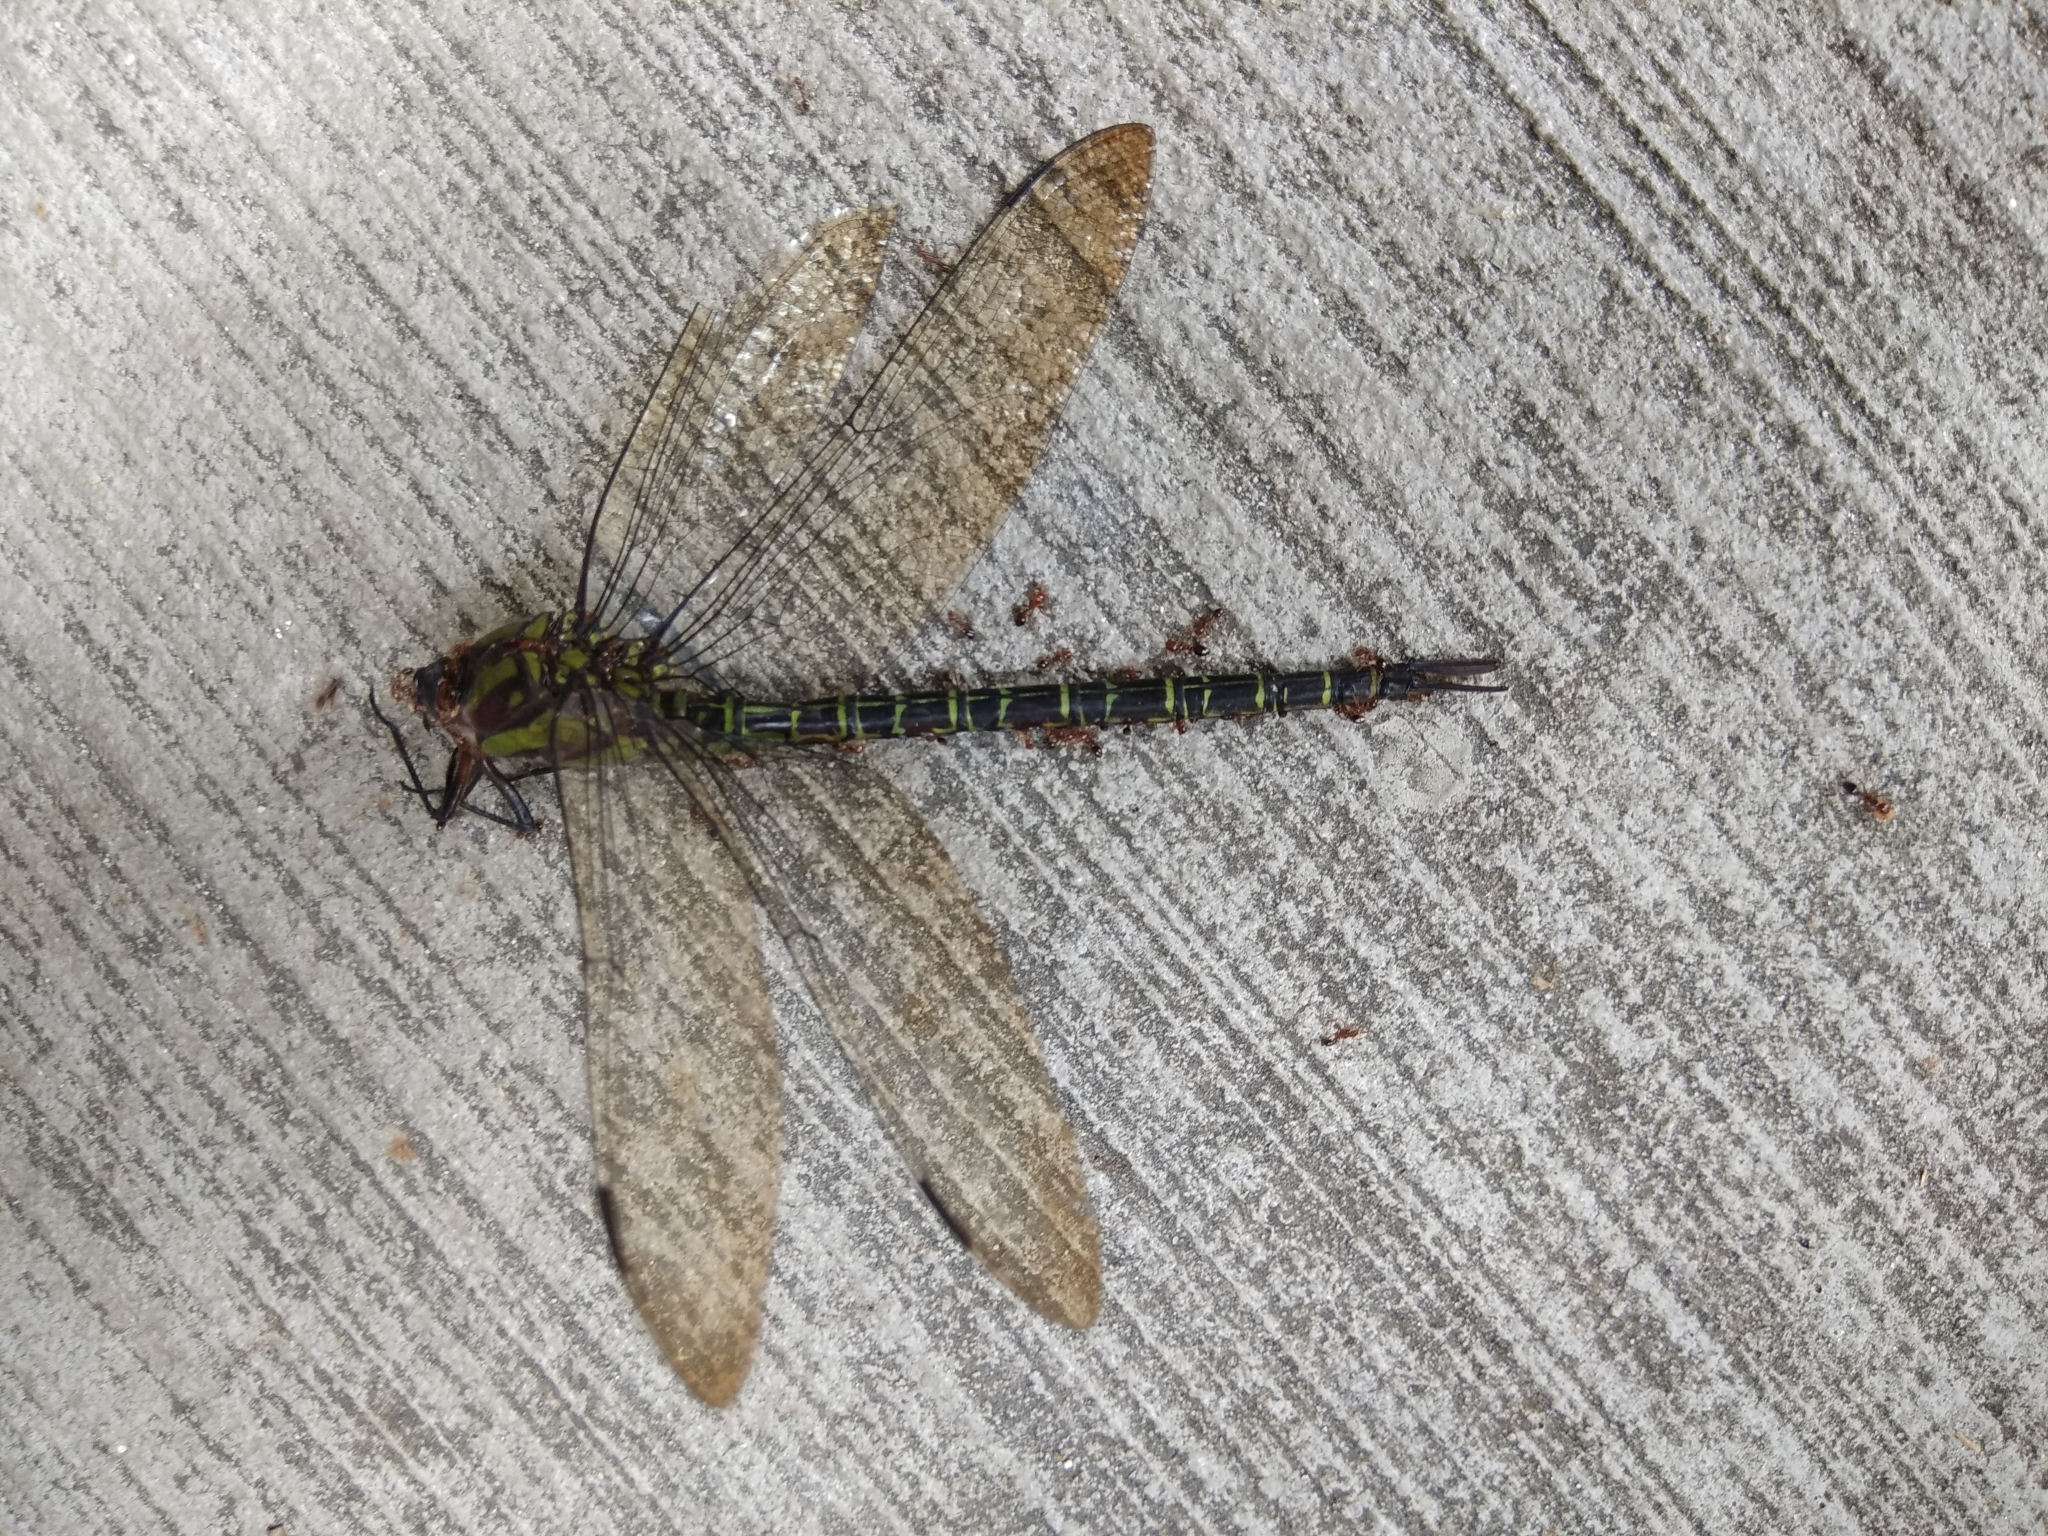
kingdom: Animalia
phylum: Arthropoda
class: Insecta
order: Odonata
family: Aeshnidae
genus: Coryphaeschna
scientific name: Coryphaeschna ingens
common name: Regal darner
